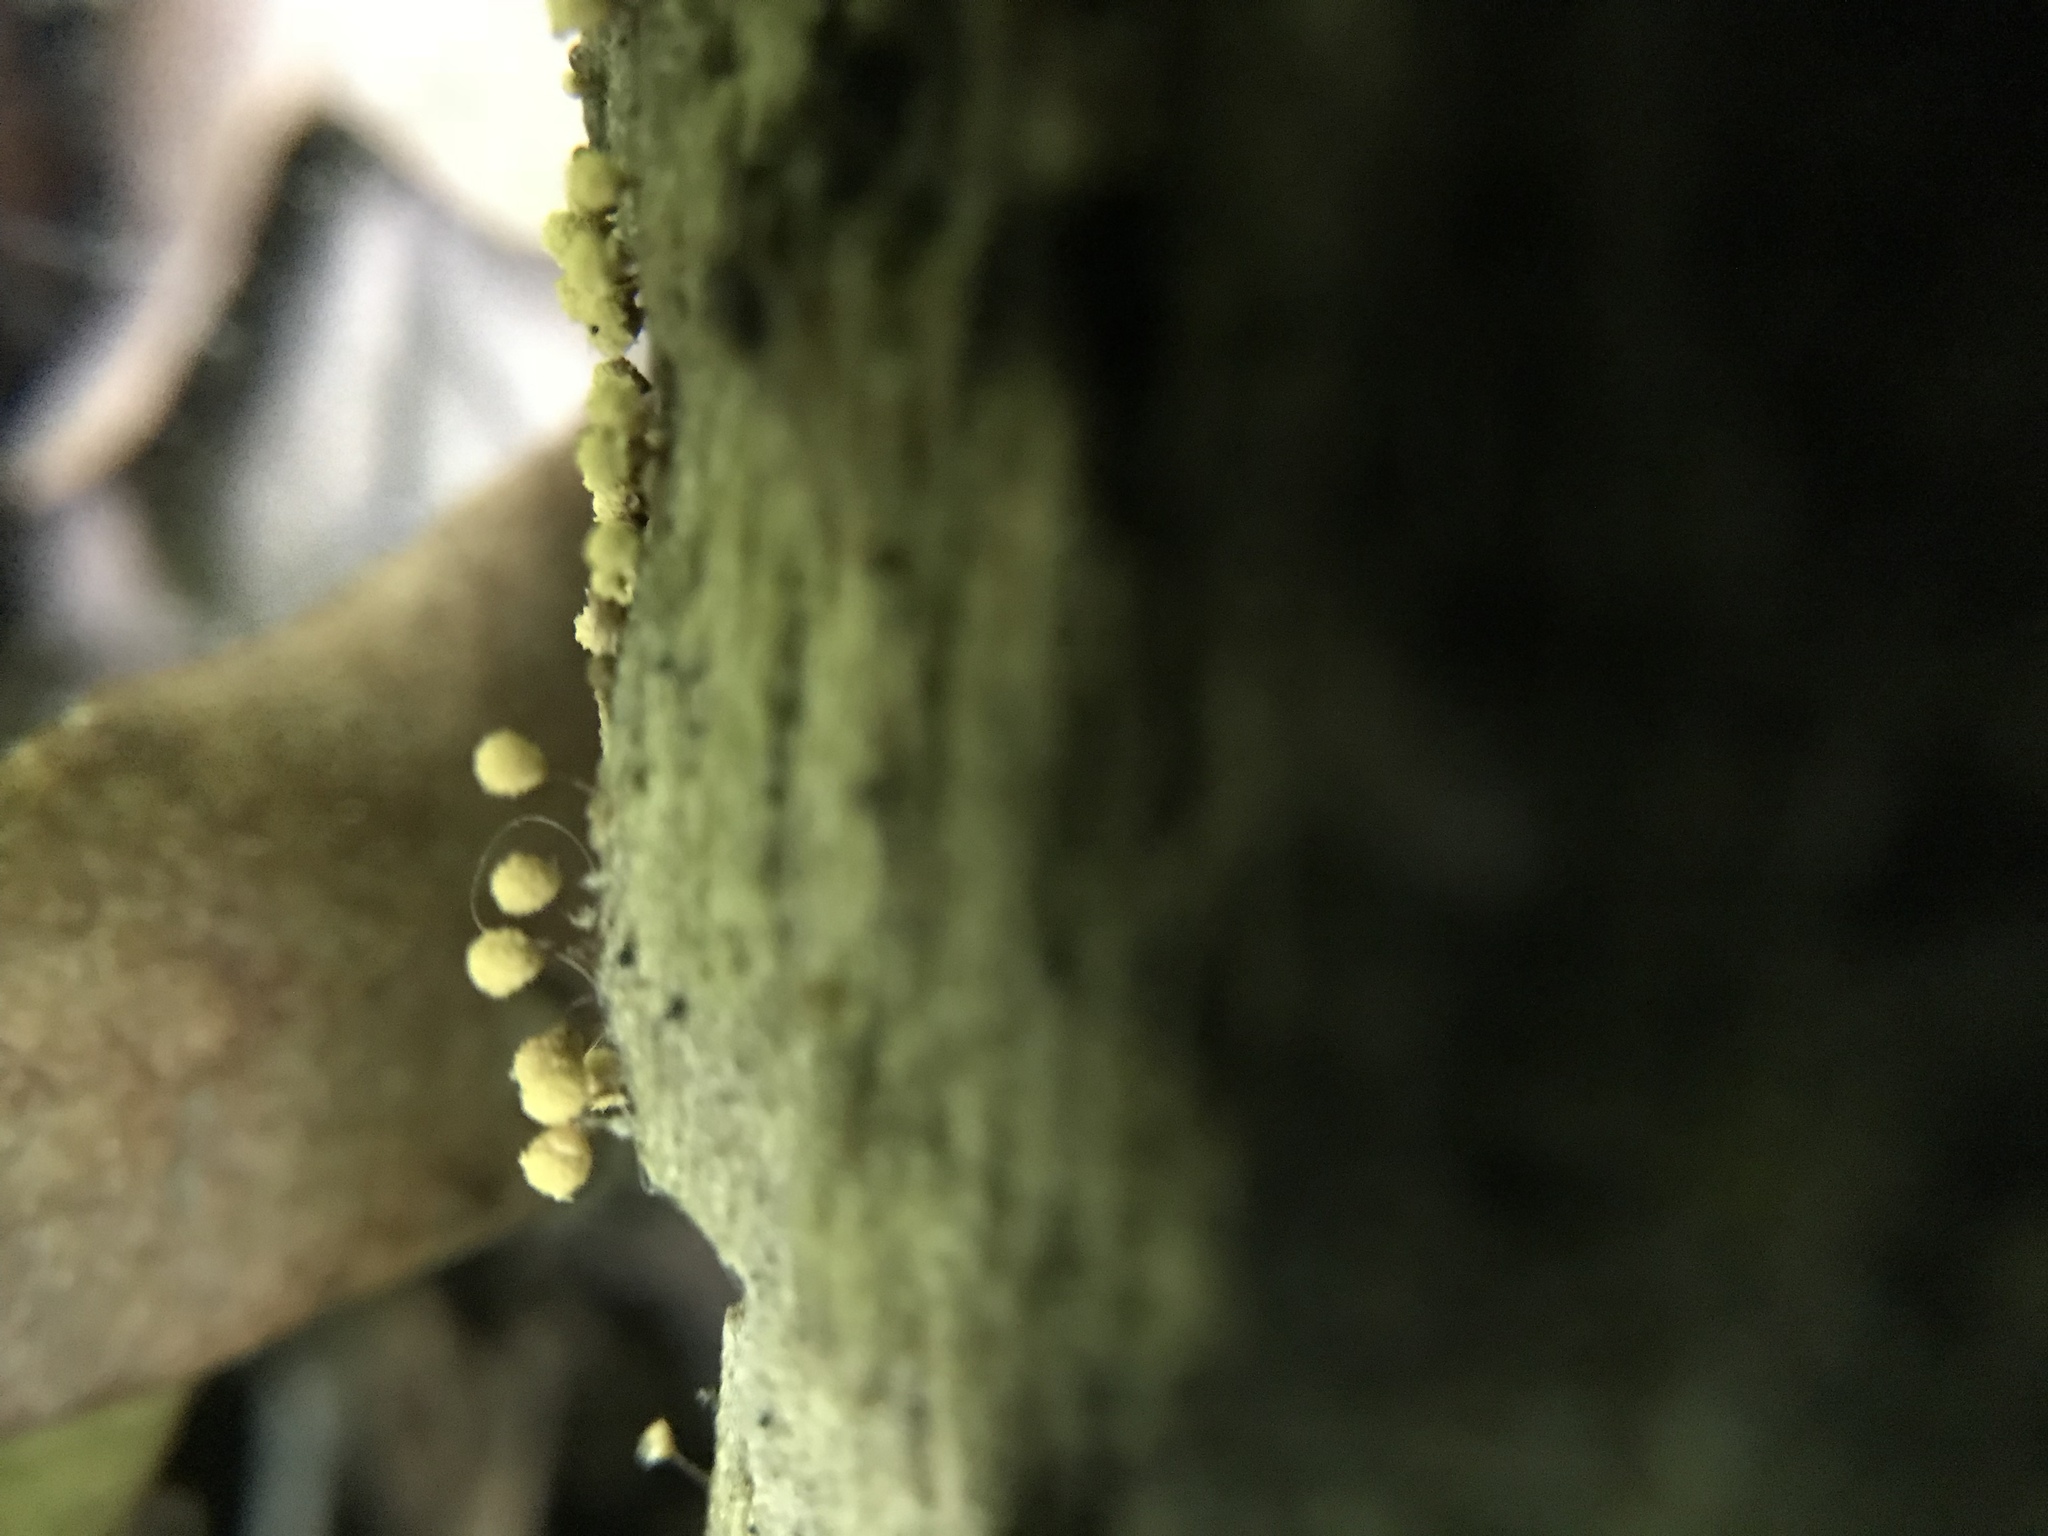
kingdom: Protozoa
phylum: Mycetozoa
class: Myxomycetes
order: Trichiales
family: Arcyriaceae
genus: Hemitrichia
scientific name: Hemitrichia calyculata
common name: Push pin slime mold
